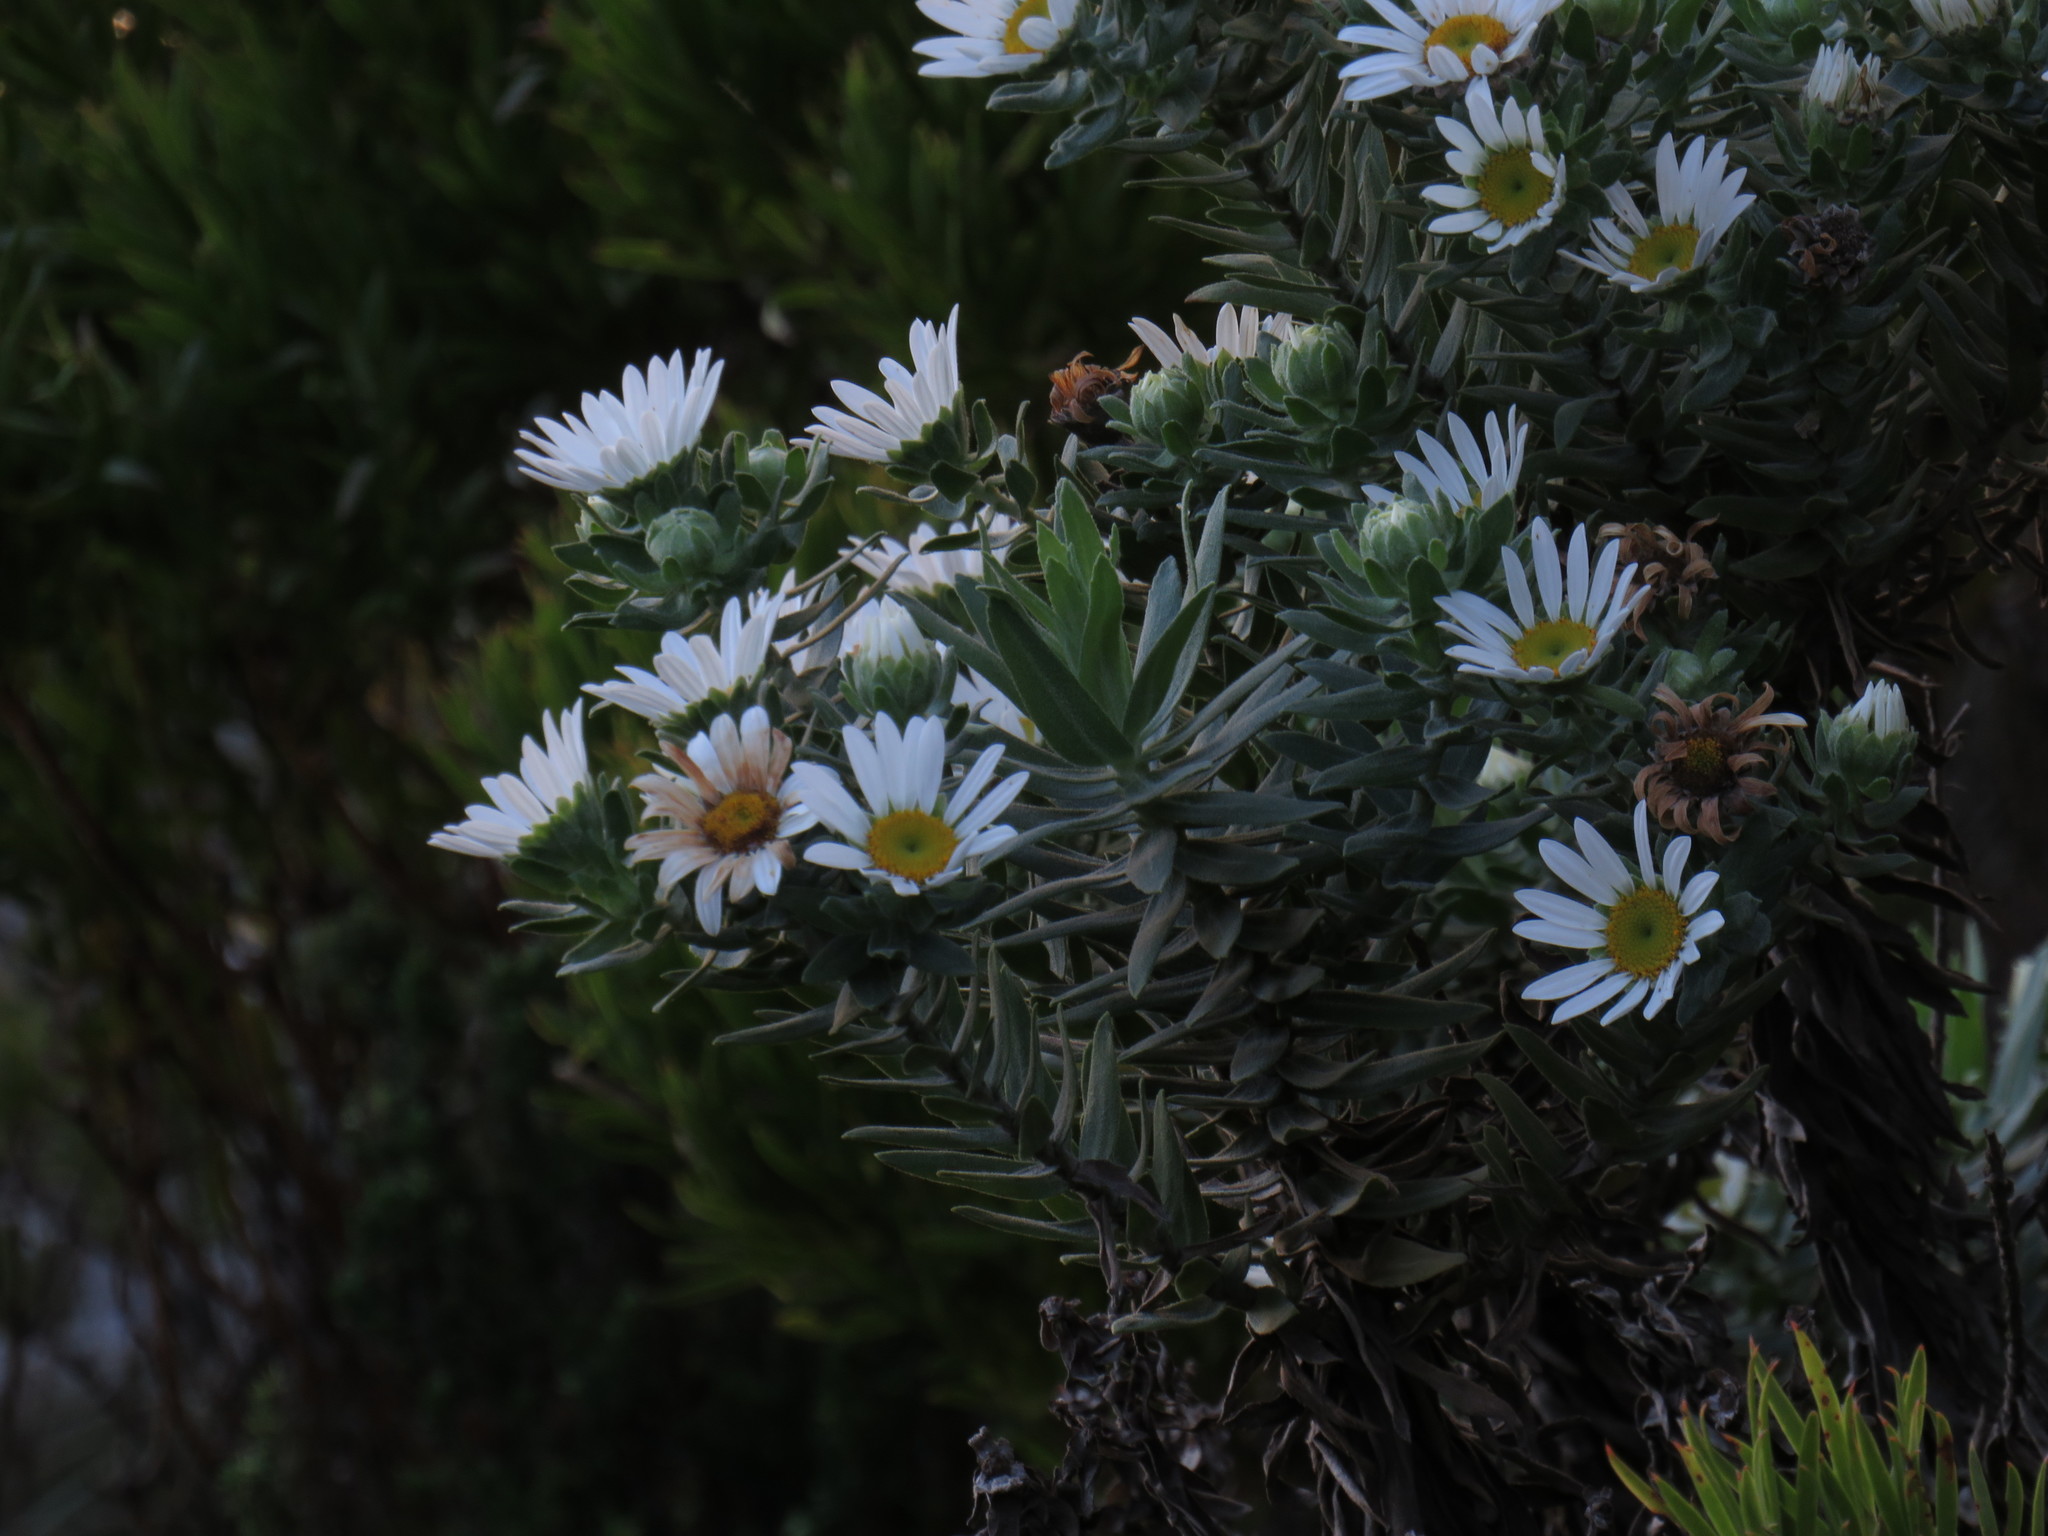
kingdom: Plantae
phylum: Tracheophyta
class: Magnoliopsida
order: Asterales
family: Asteraceae
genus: Osmitopsis
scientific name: Osmitopsis asteriscoides
